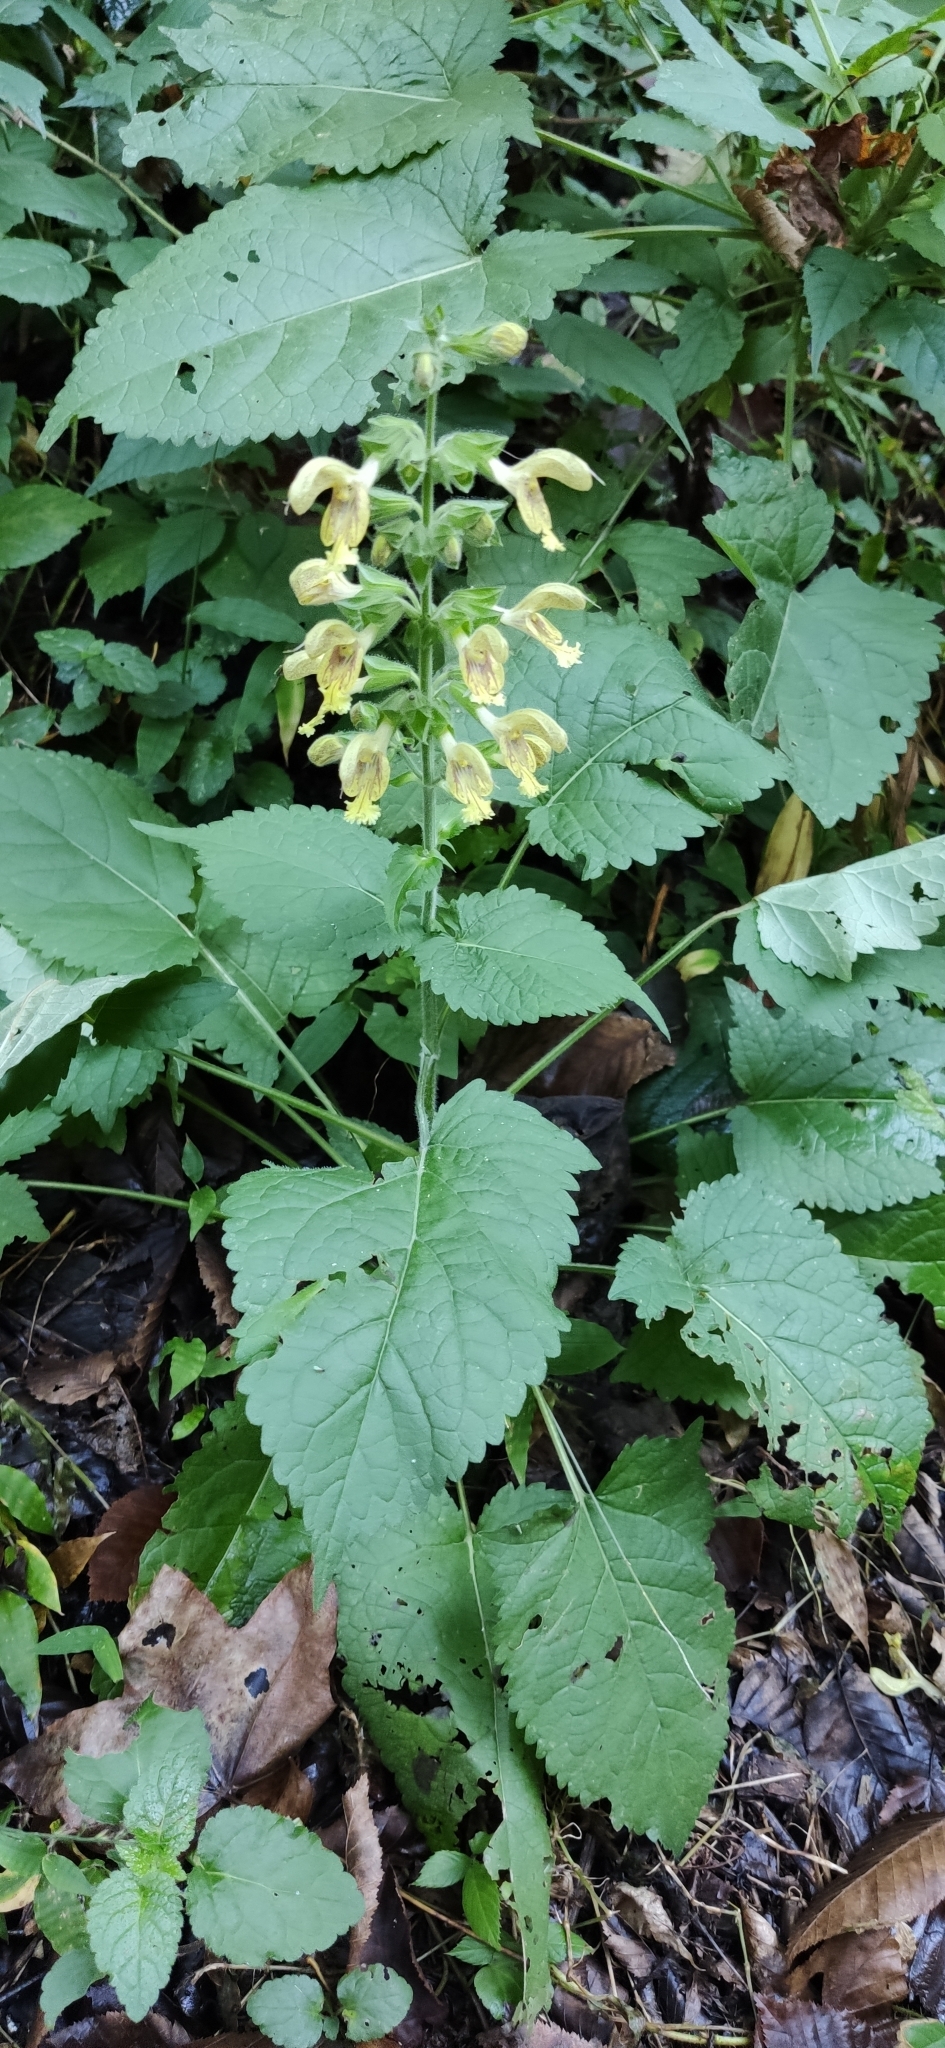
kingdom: Plantae
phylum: Tracheophyta
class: Magnoliopsida
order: Lamiales
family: Lamiaceae
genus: Salvia
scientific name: Salvia glutinosa
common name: Sticky clary
